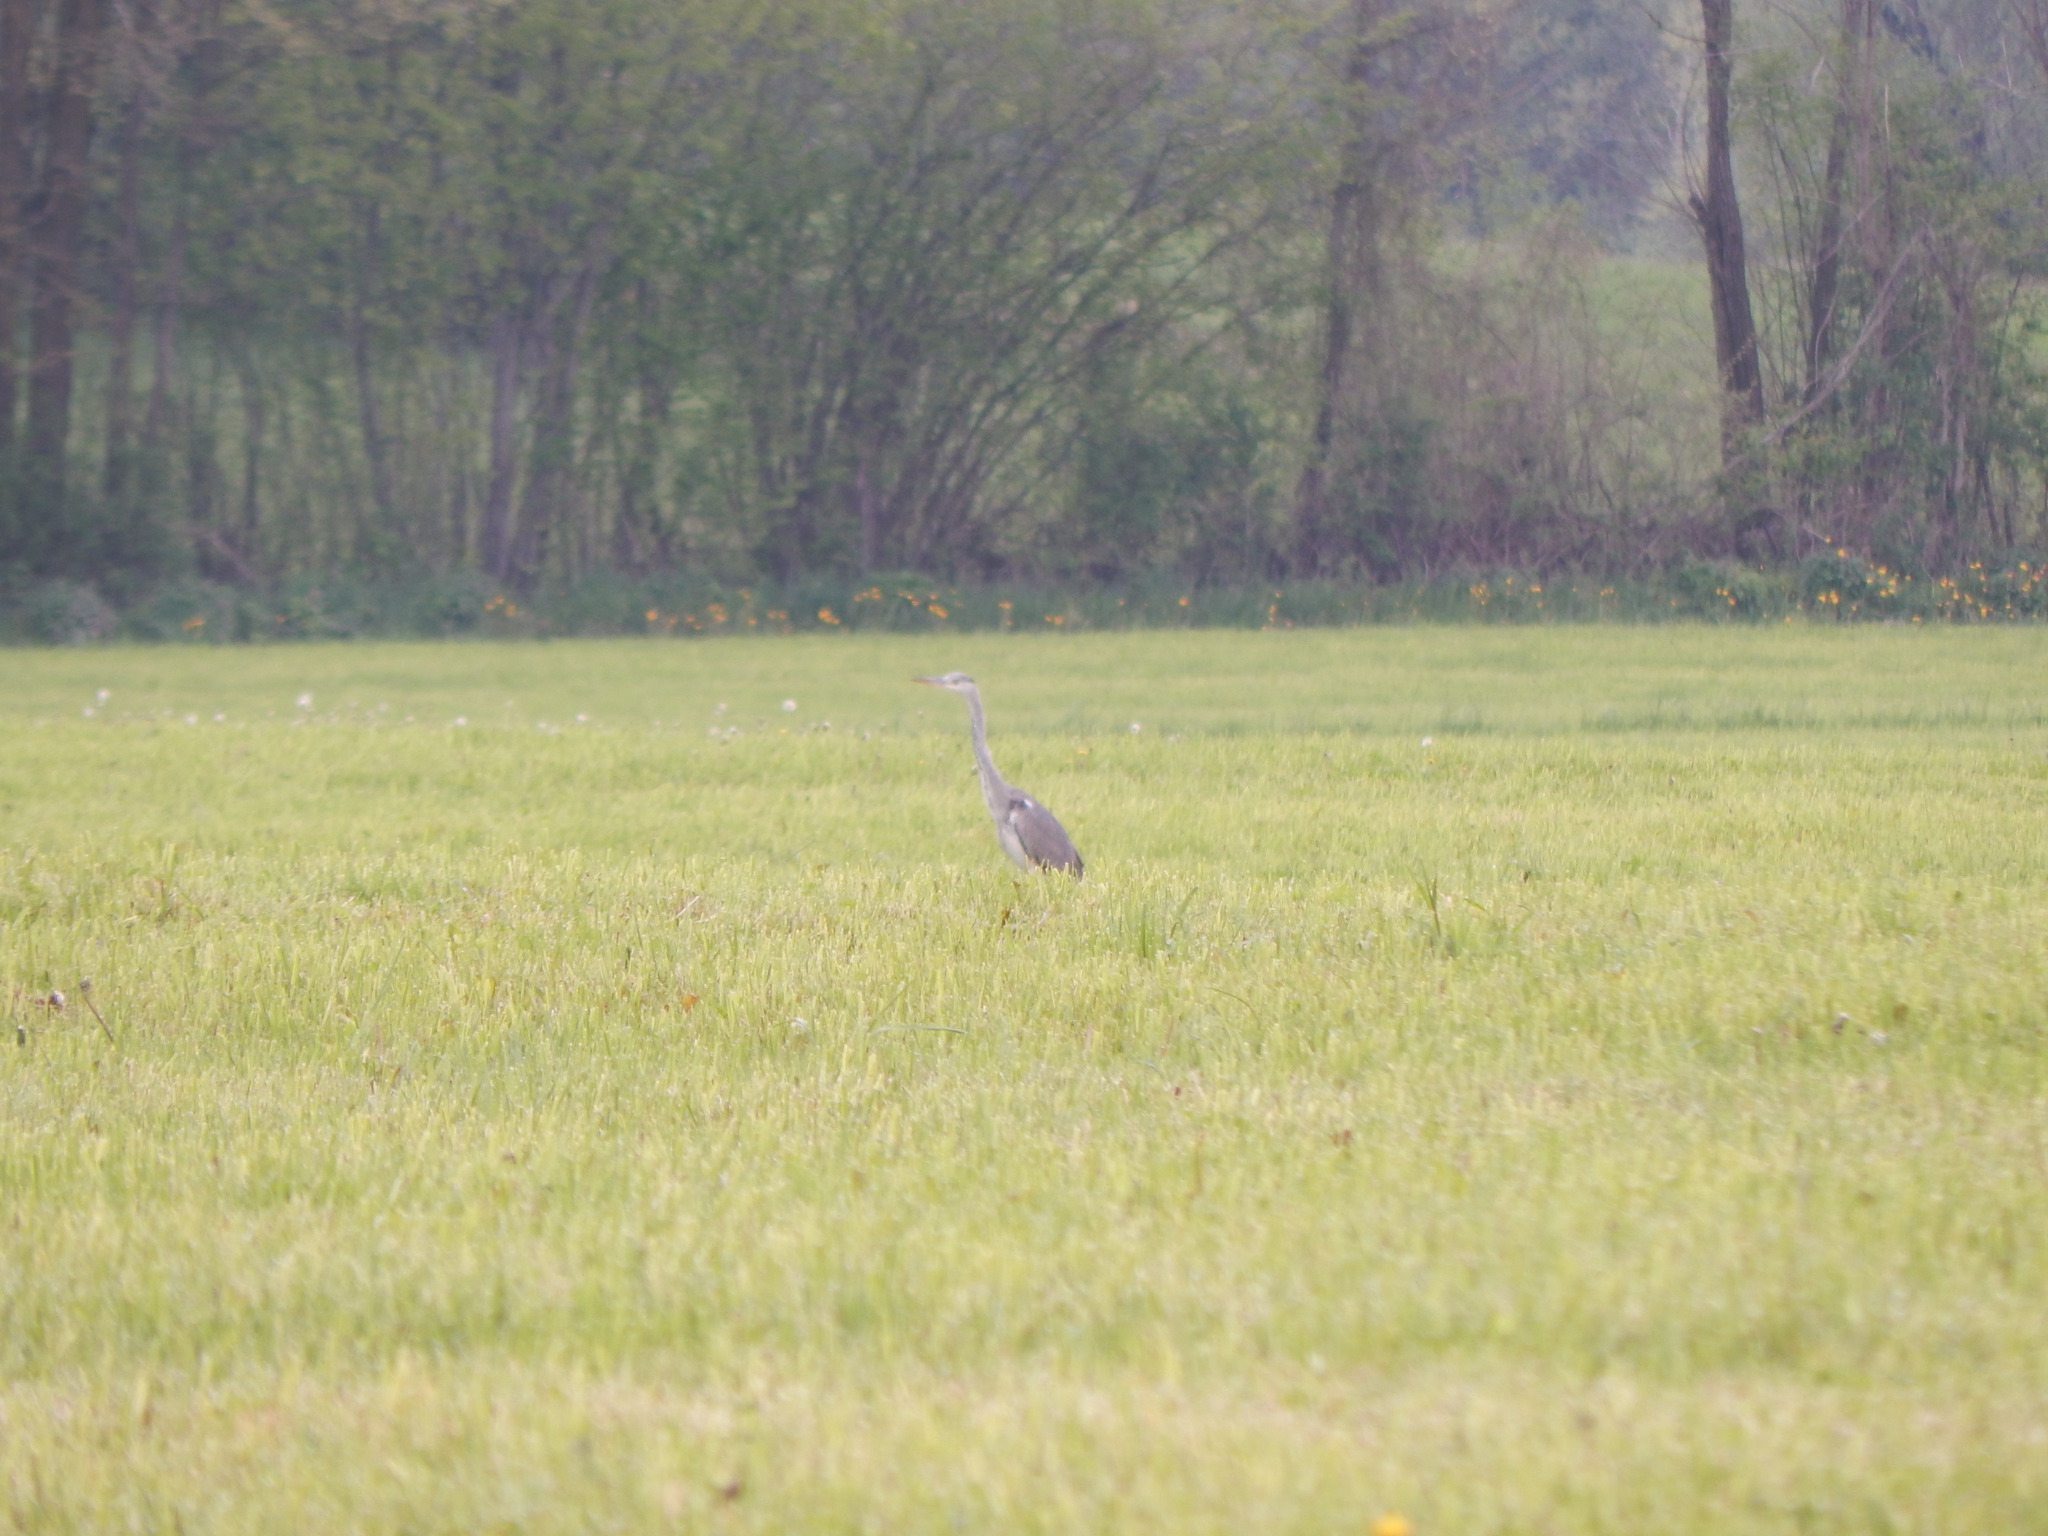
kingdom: Animalia
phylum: Chordata
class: Aves
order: Pelecaniformes
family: Ardeidae
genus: Ardea
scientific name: Ardea cinerea
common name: Grey heron
